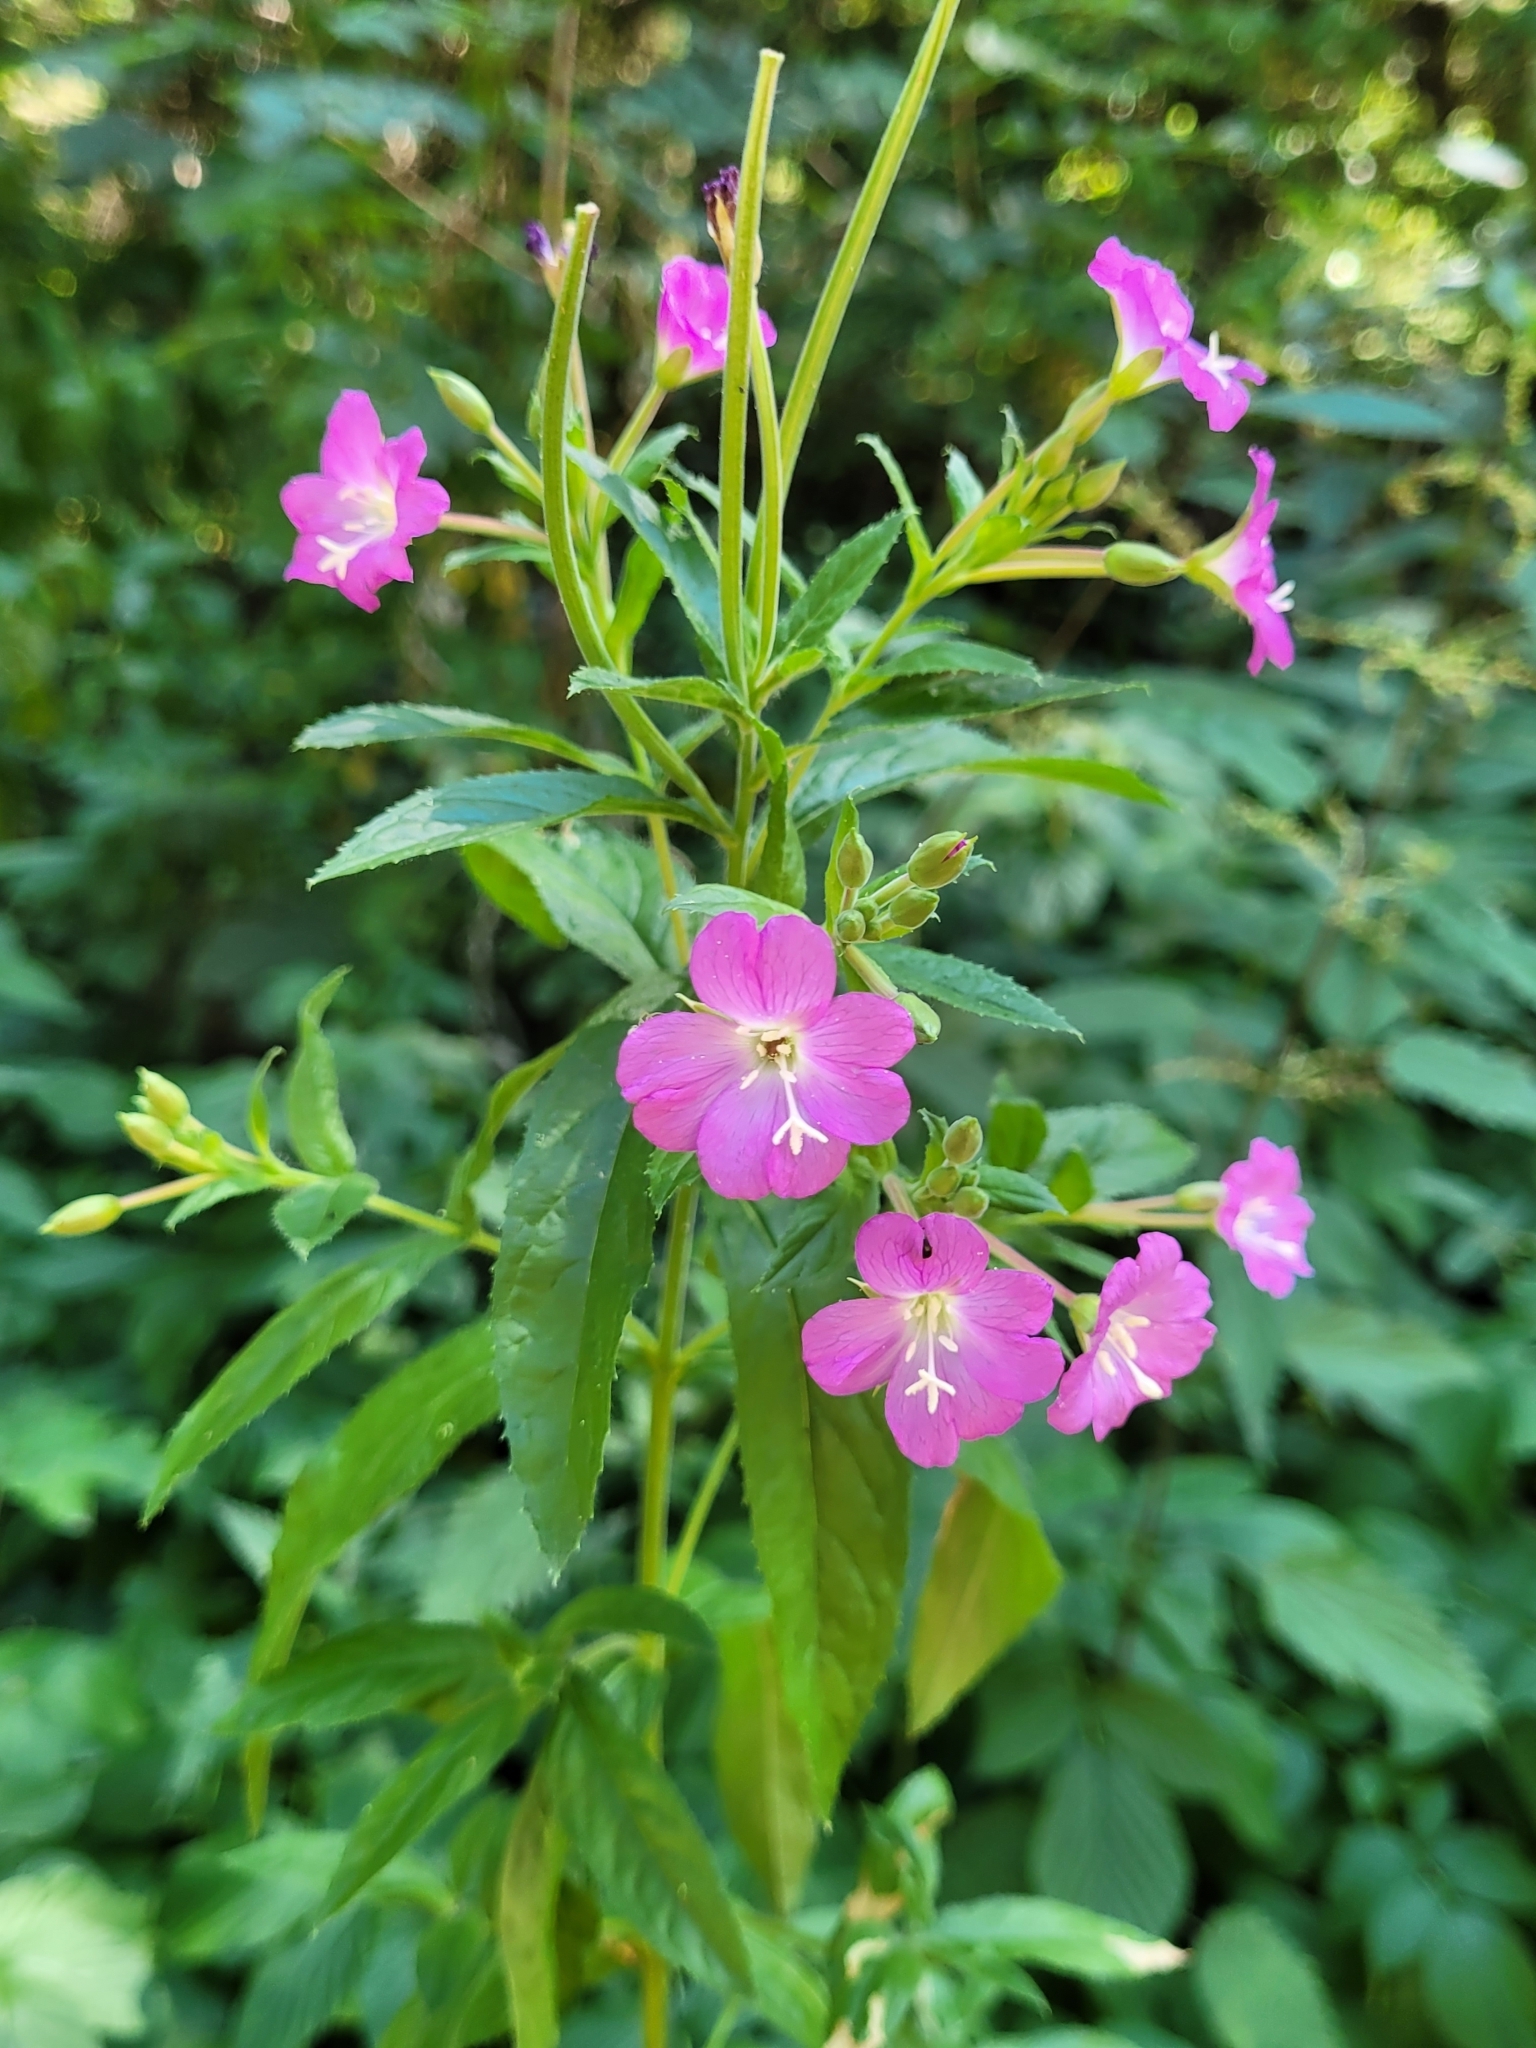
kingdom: Plantae
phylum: Tracheophyta
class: Magnoliopsida
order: Myrtales
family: Onagraceae
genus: Epilobium
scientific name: Epilobium hirsutum
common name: Great willowherb
